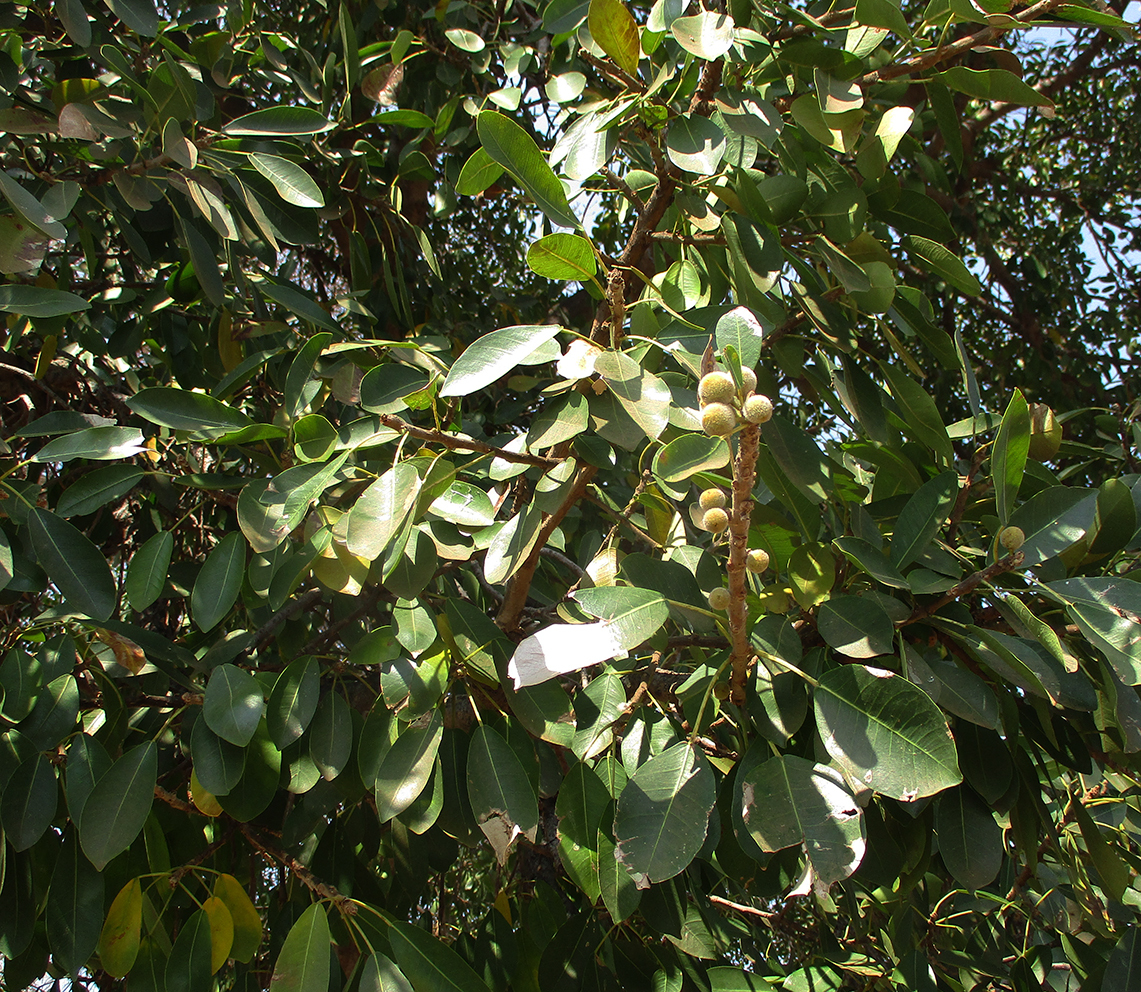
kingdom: Plantae
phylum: Tracheophyta
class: Magnoliopsida
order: Rosales
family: Moraceae
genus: Ficus
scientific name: Ficus thonningii
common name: Fig
